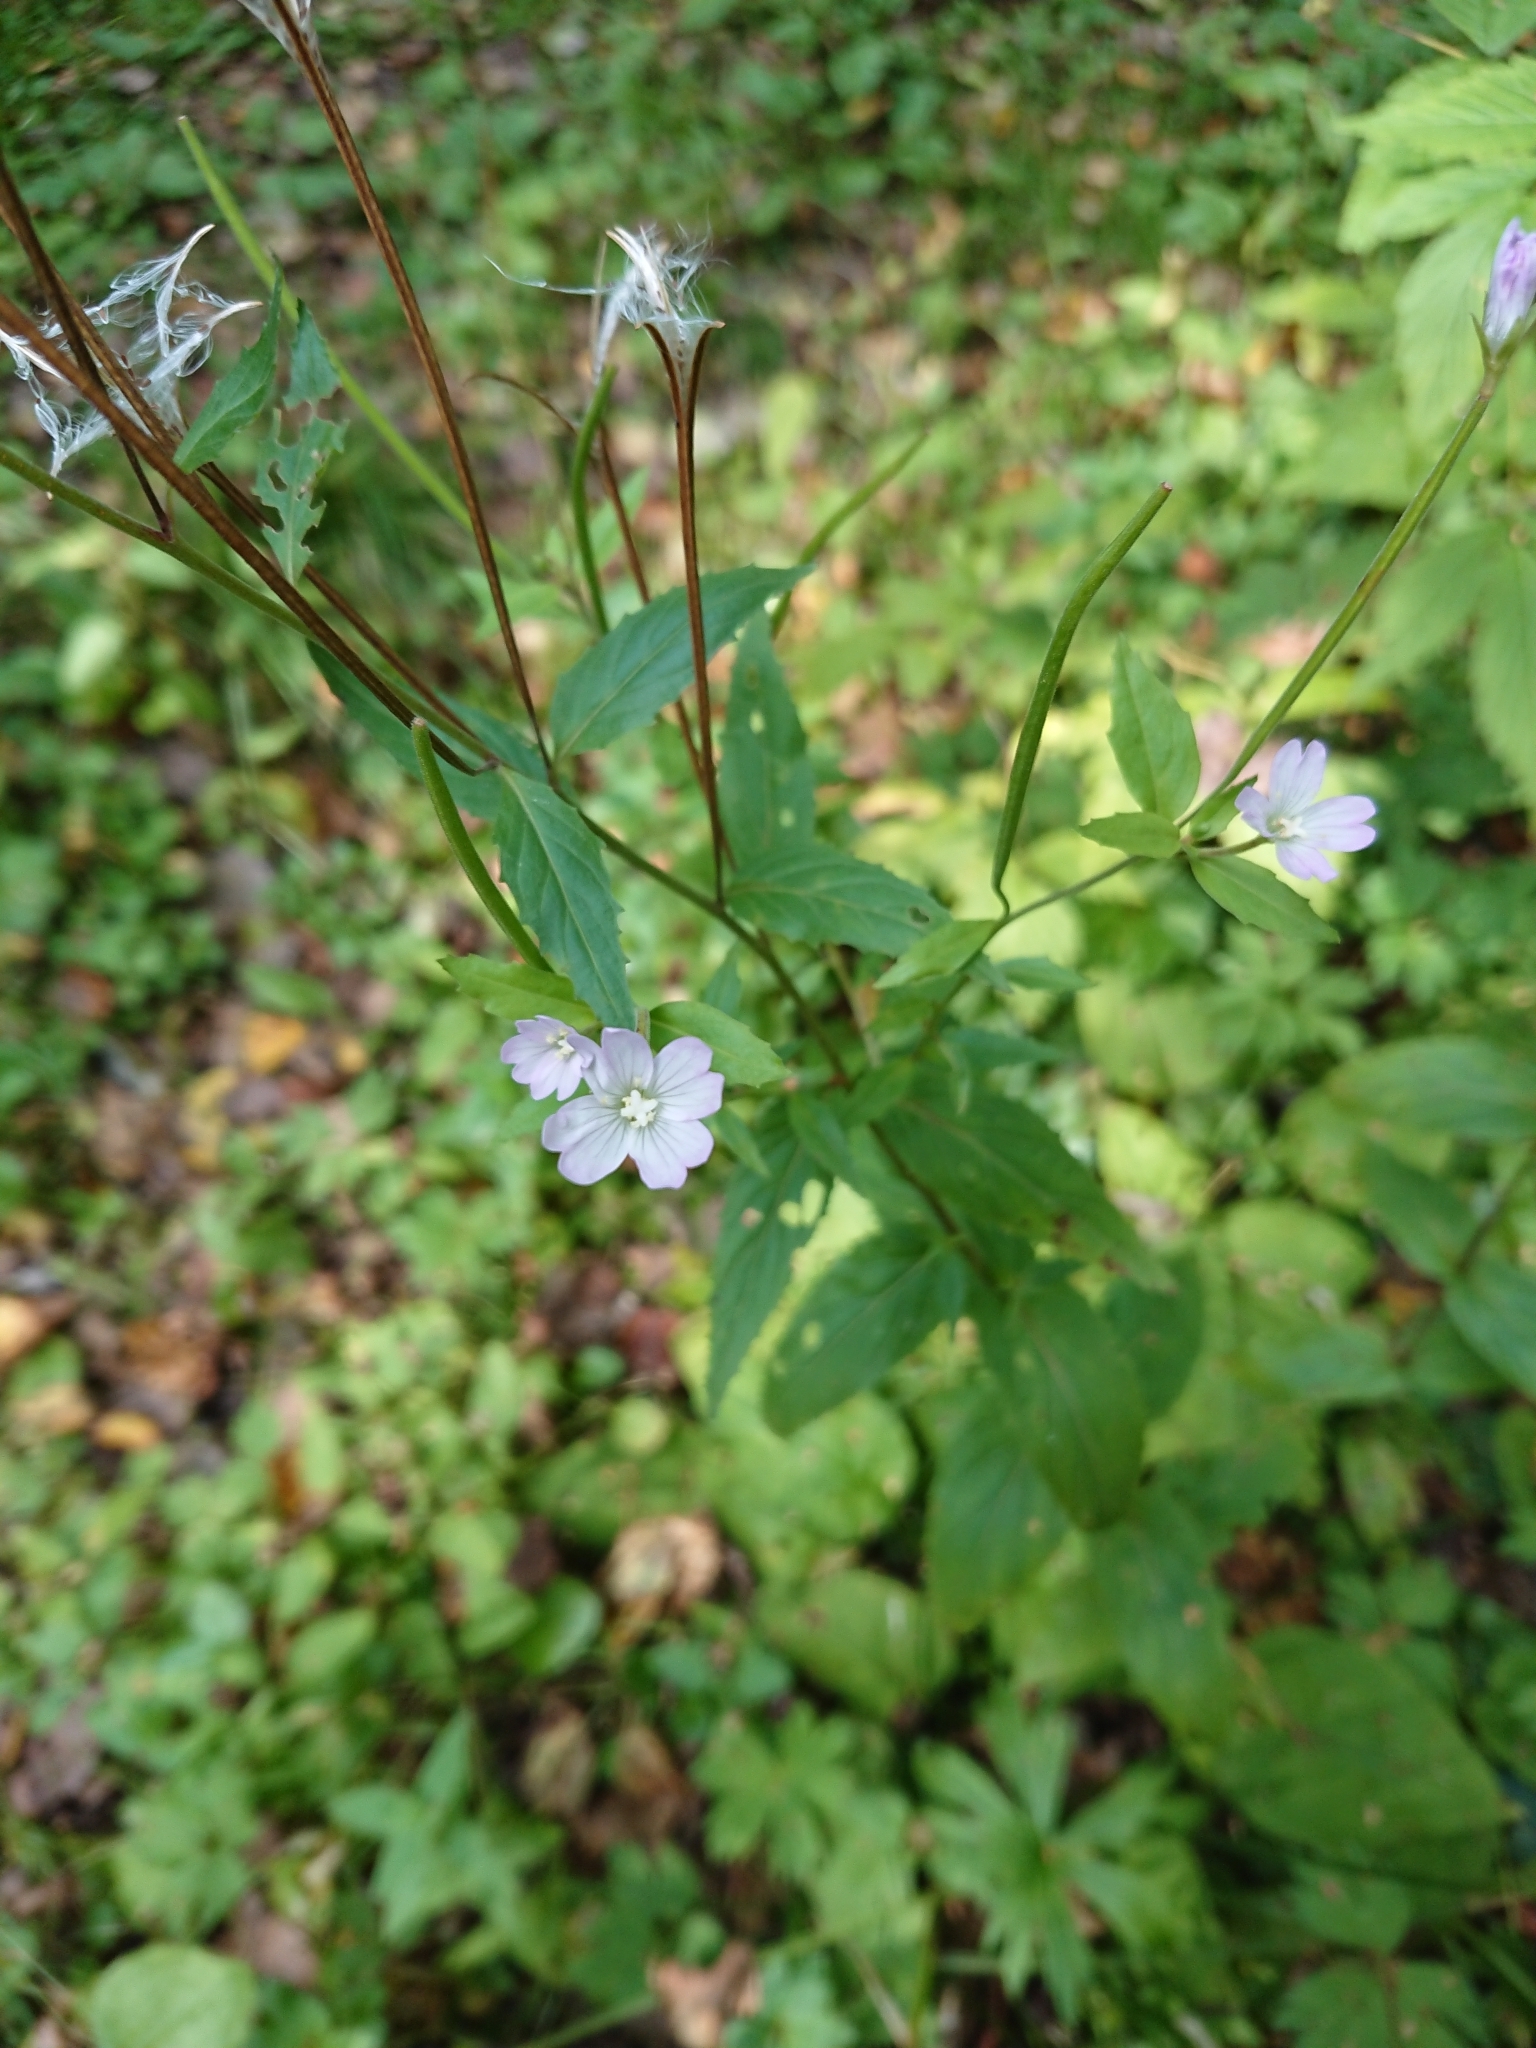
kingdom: Plantae
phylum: Tracheophyta
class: Magnoliopsida
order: Myrtales
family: Onagraceae
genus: Epilobium
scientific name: Epilobium montanum
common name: Broad-leaved willowherb
